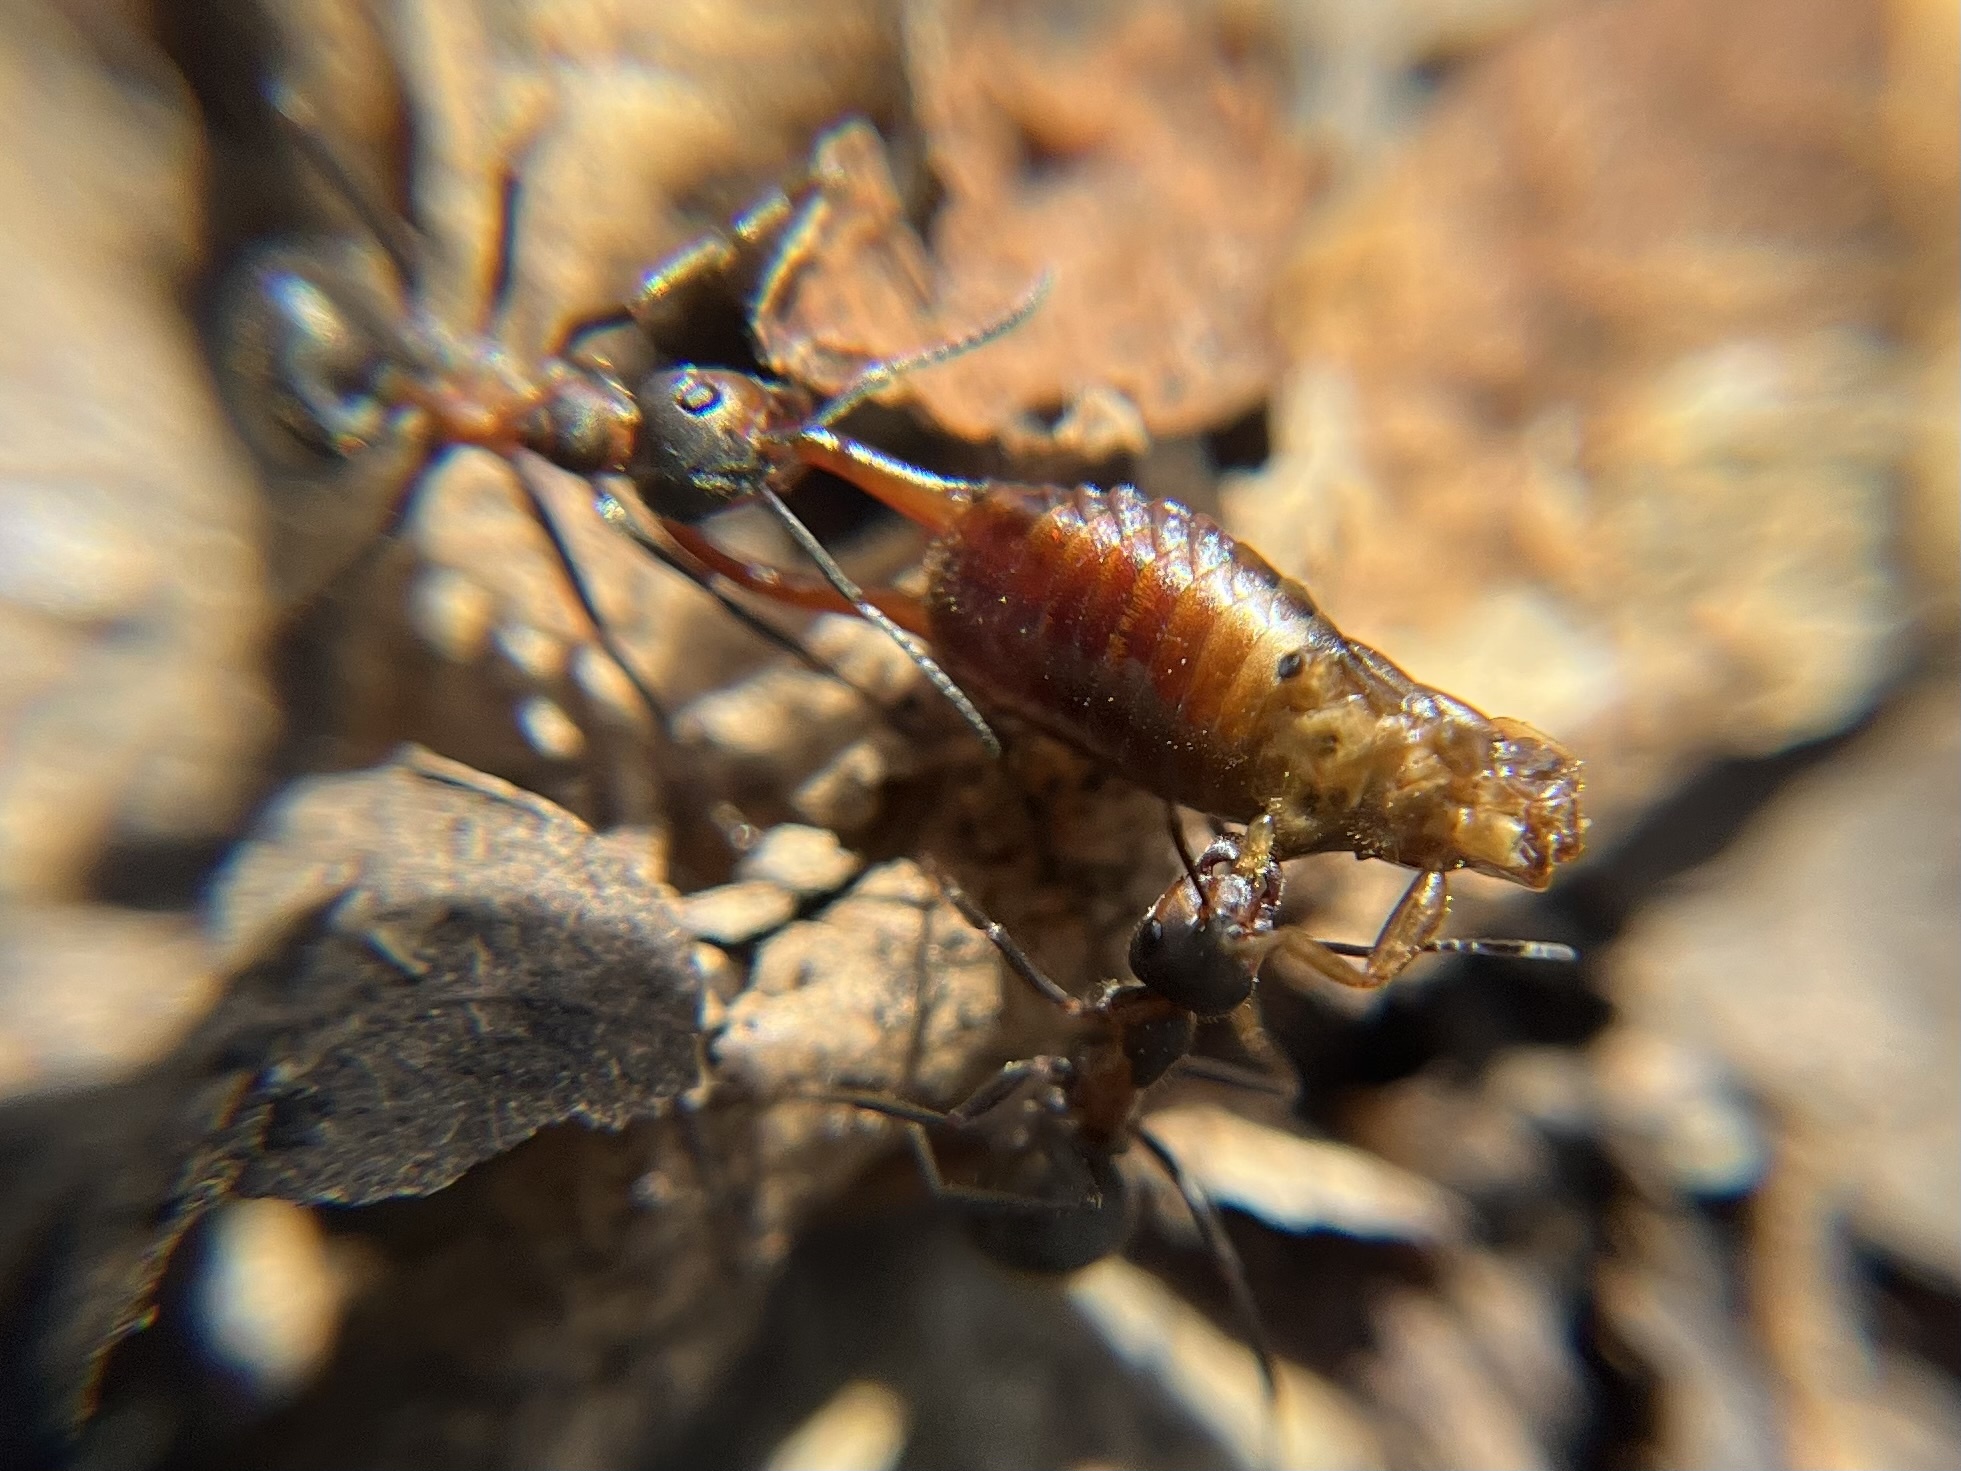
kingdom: Animalia
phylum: Arthropoda
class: Insecta
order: Dermaptera
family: Forficulidae
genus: Chelidurella
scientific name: Chelidurella acanthopygia
